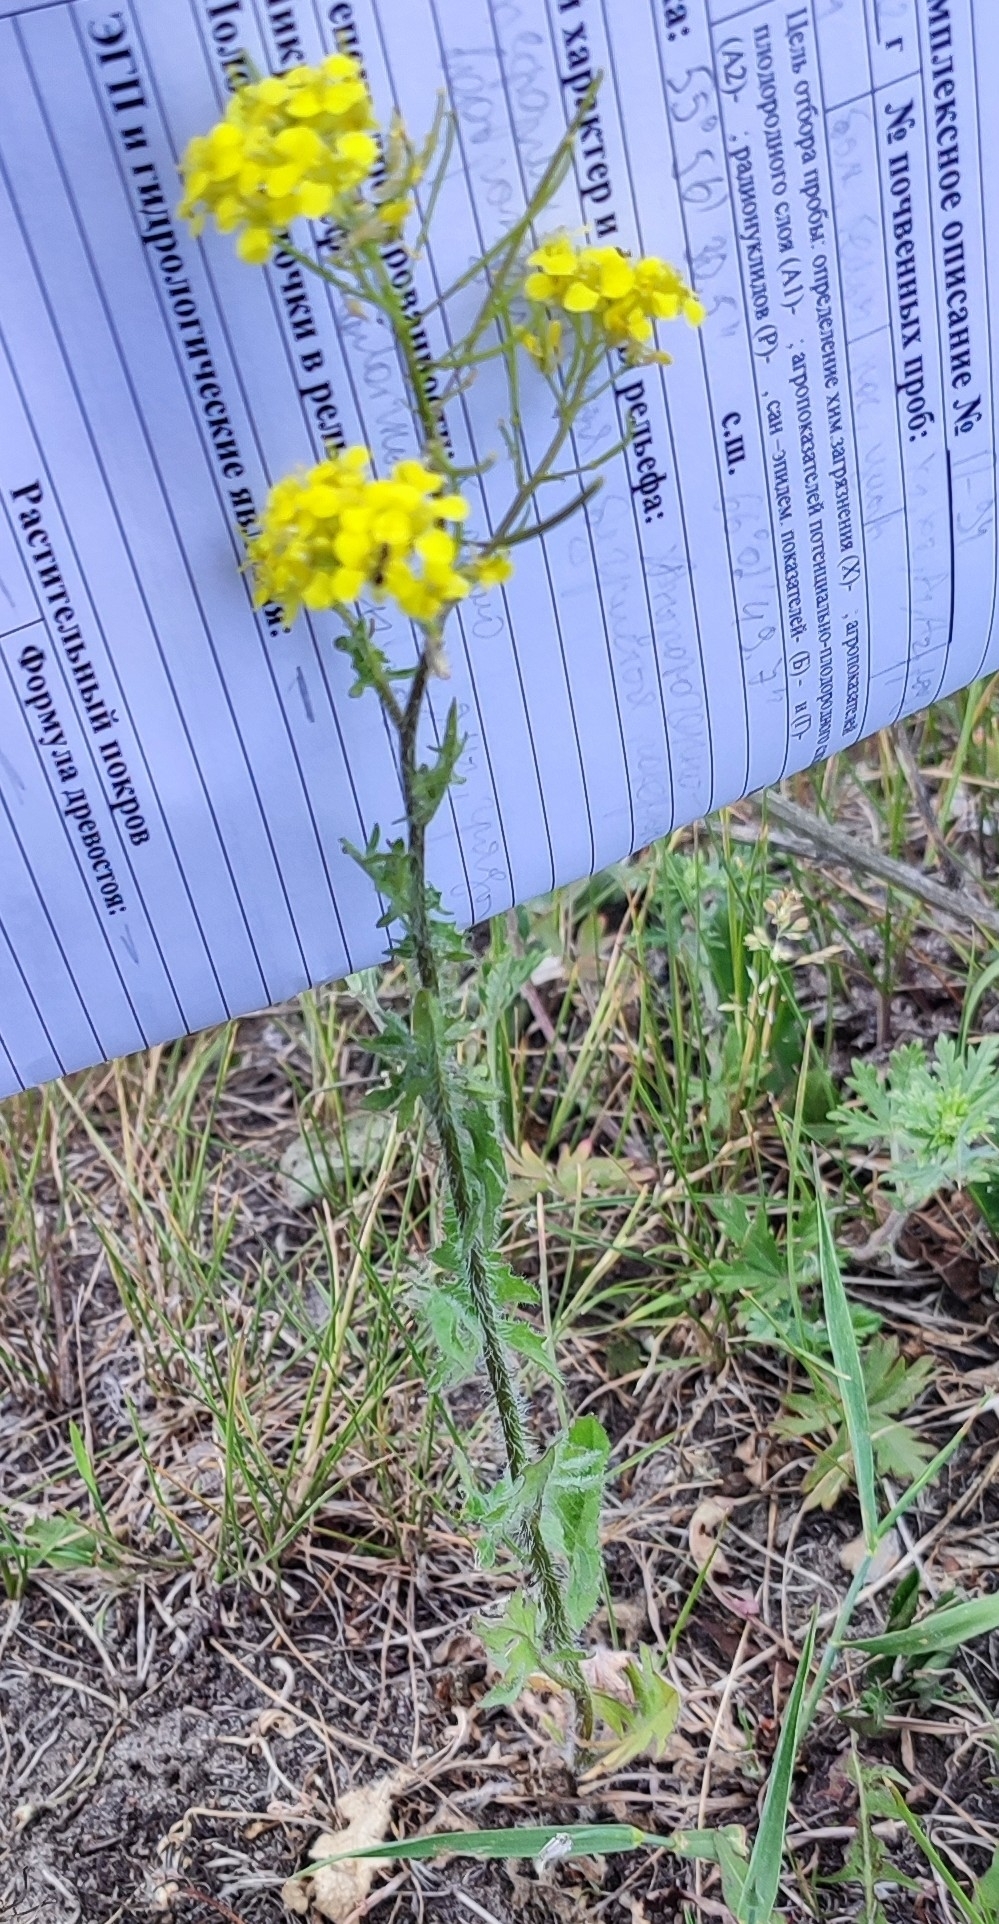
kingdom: Plantae
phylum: Tracheophyta
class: Magnoliopsida
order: Brassicales
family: Brassicaceae
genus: Sisymbrium
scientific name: Sisymbrium loeselii
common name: False london-rocket
